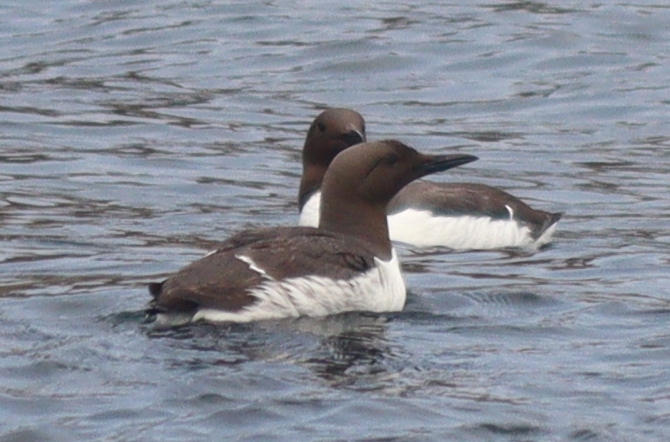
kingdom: Animalia
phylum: Chordata
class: Aves
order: Charadriiformes
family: Alcidae
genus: Uria
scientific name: Uria aalge
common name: Common murre
